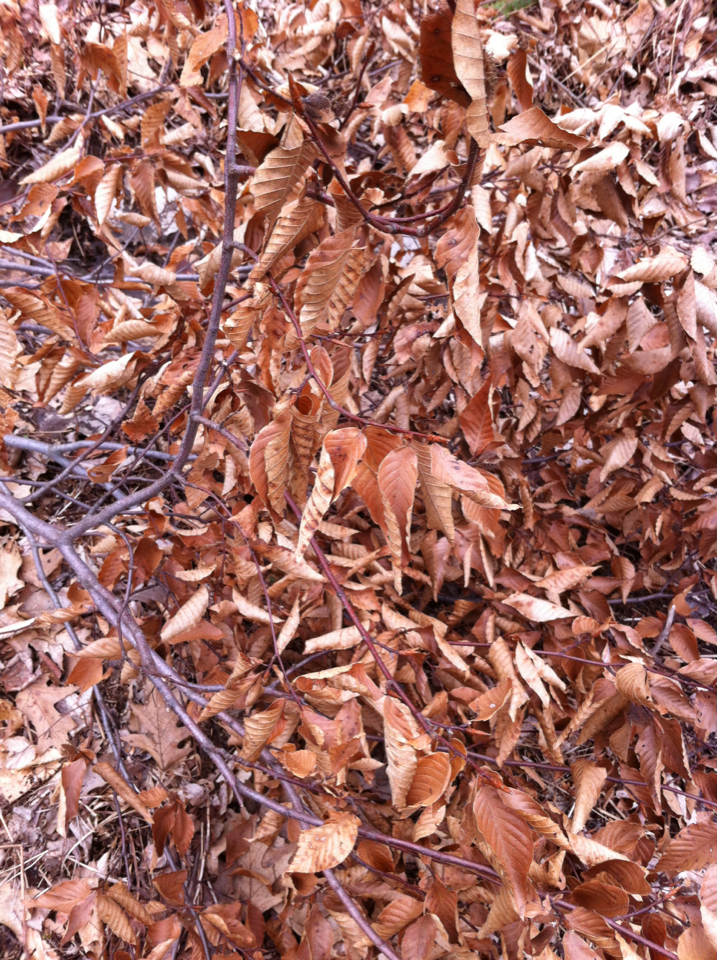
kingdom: Plantae
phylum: Tracheophyta
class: Magnoliopsida
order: Fagales
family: Fagaceae
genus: Fagus
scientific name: Fagus grandifolia
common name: American beech
